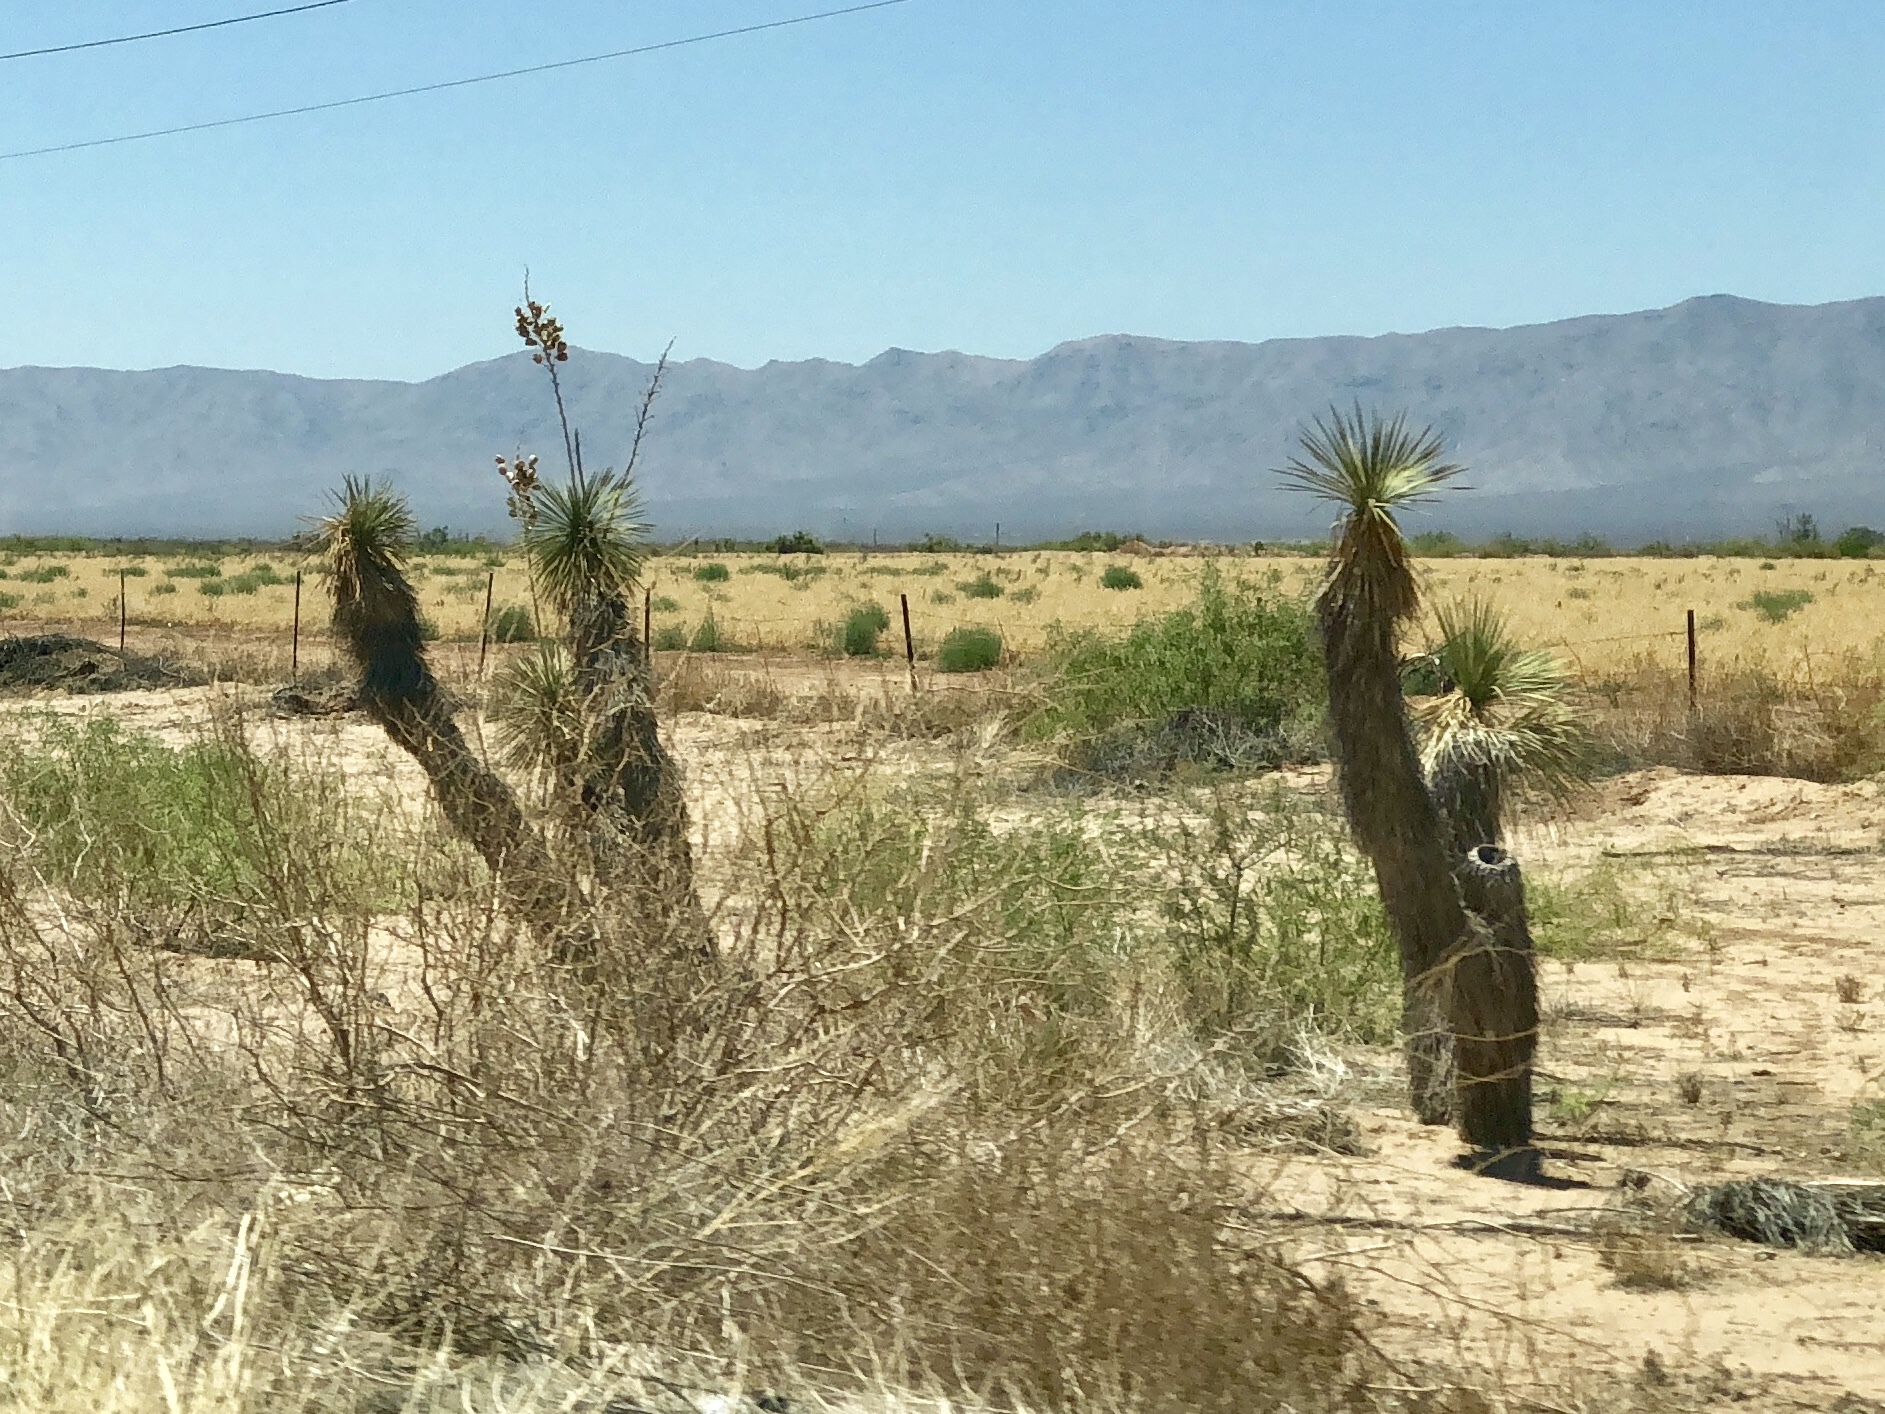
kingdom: Plantae
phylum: Tracheophyta
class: Liliopsida
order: Asparagales
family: Asparagaceae
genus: Yucca
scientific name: Yucca elata
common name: Palmella
